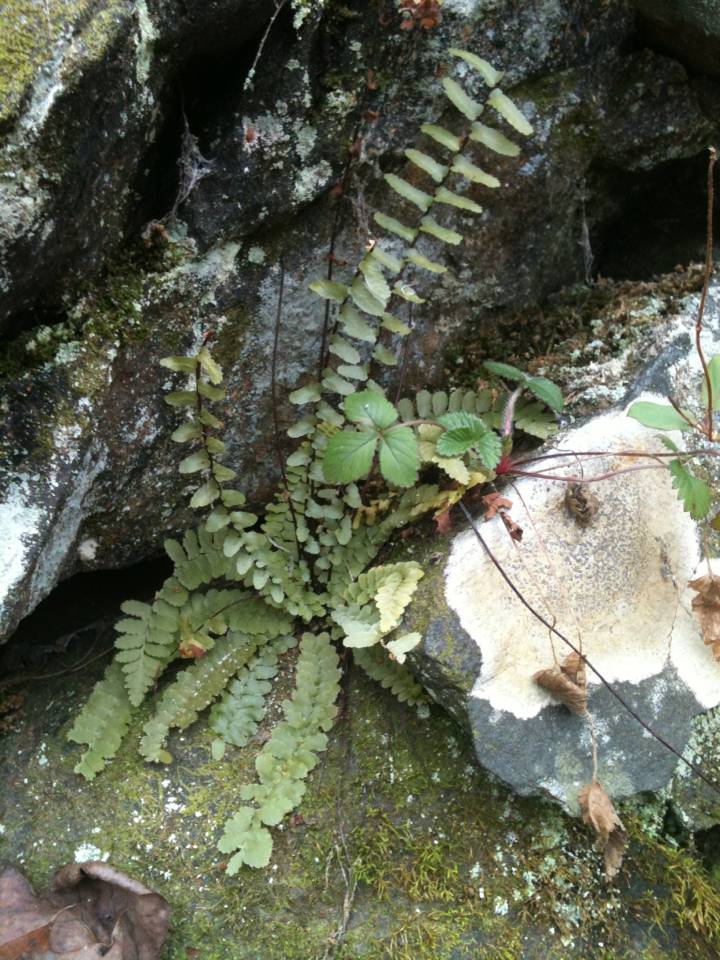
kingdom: Plantae
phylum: Tracheophyta
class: Polypodiopsida
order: Polypodiales
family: Aspleniaceae
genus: Asplenium
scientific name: Asplenium platyneuron
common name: Ebony spleenwort
